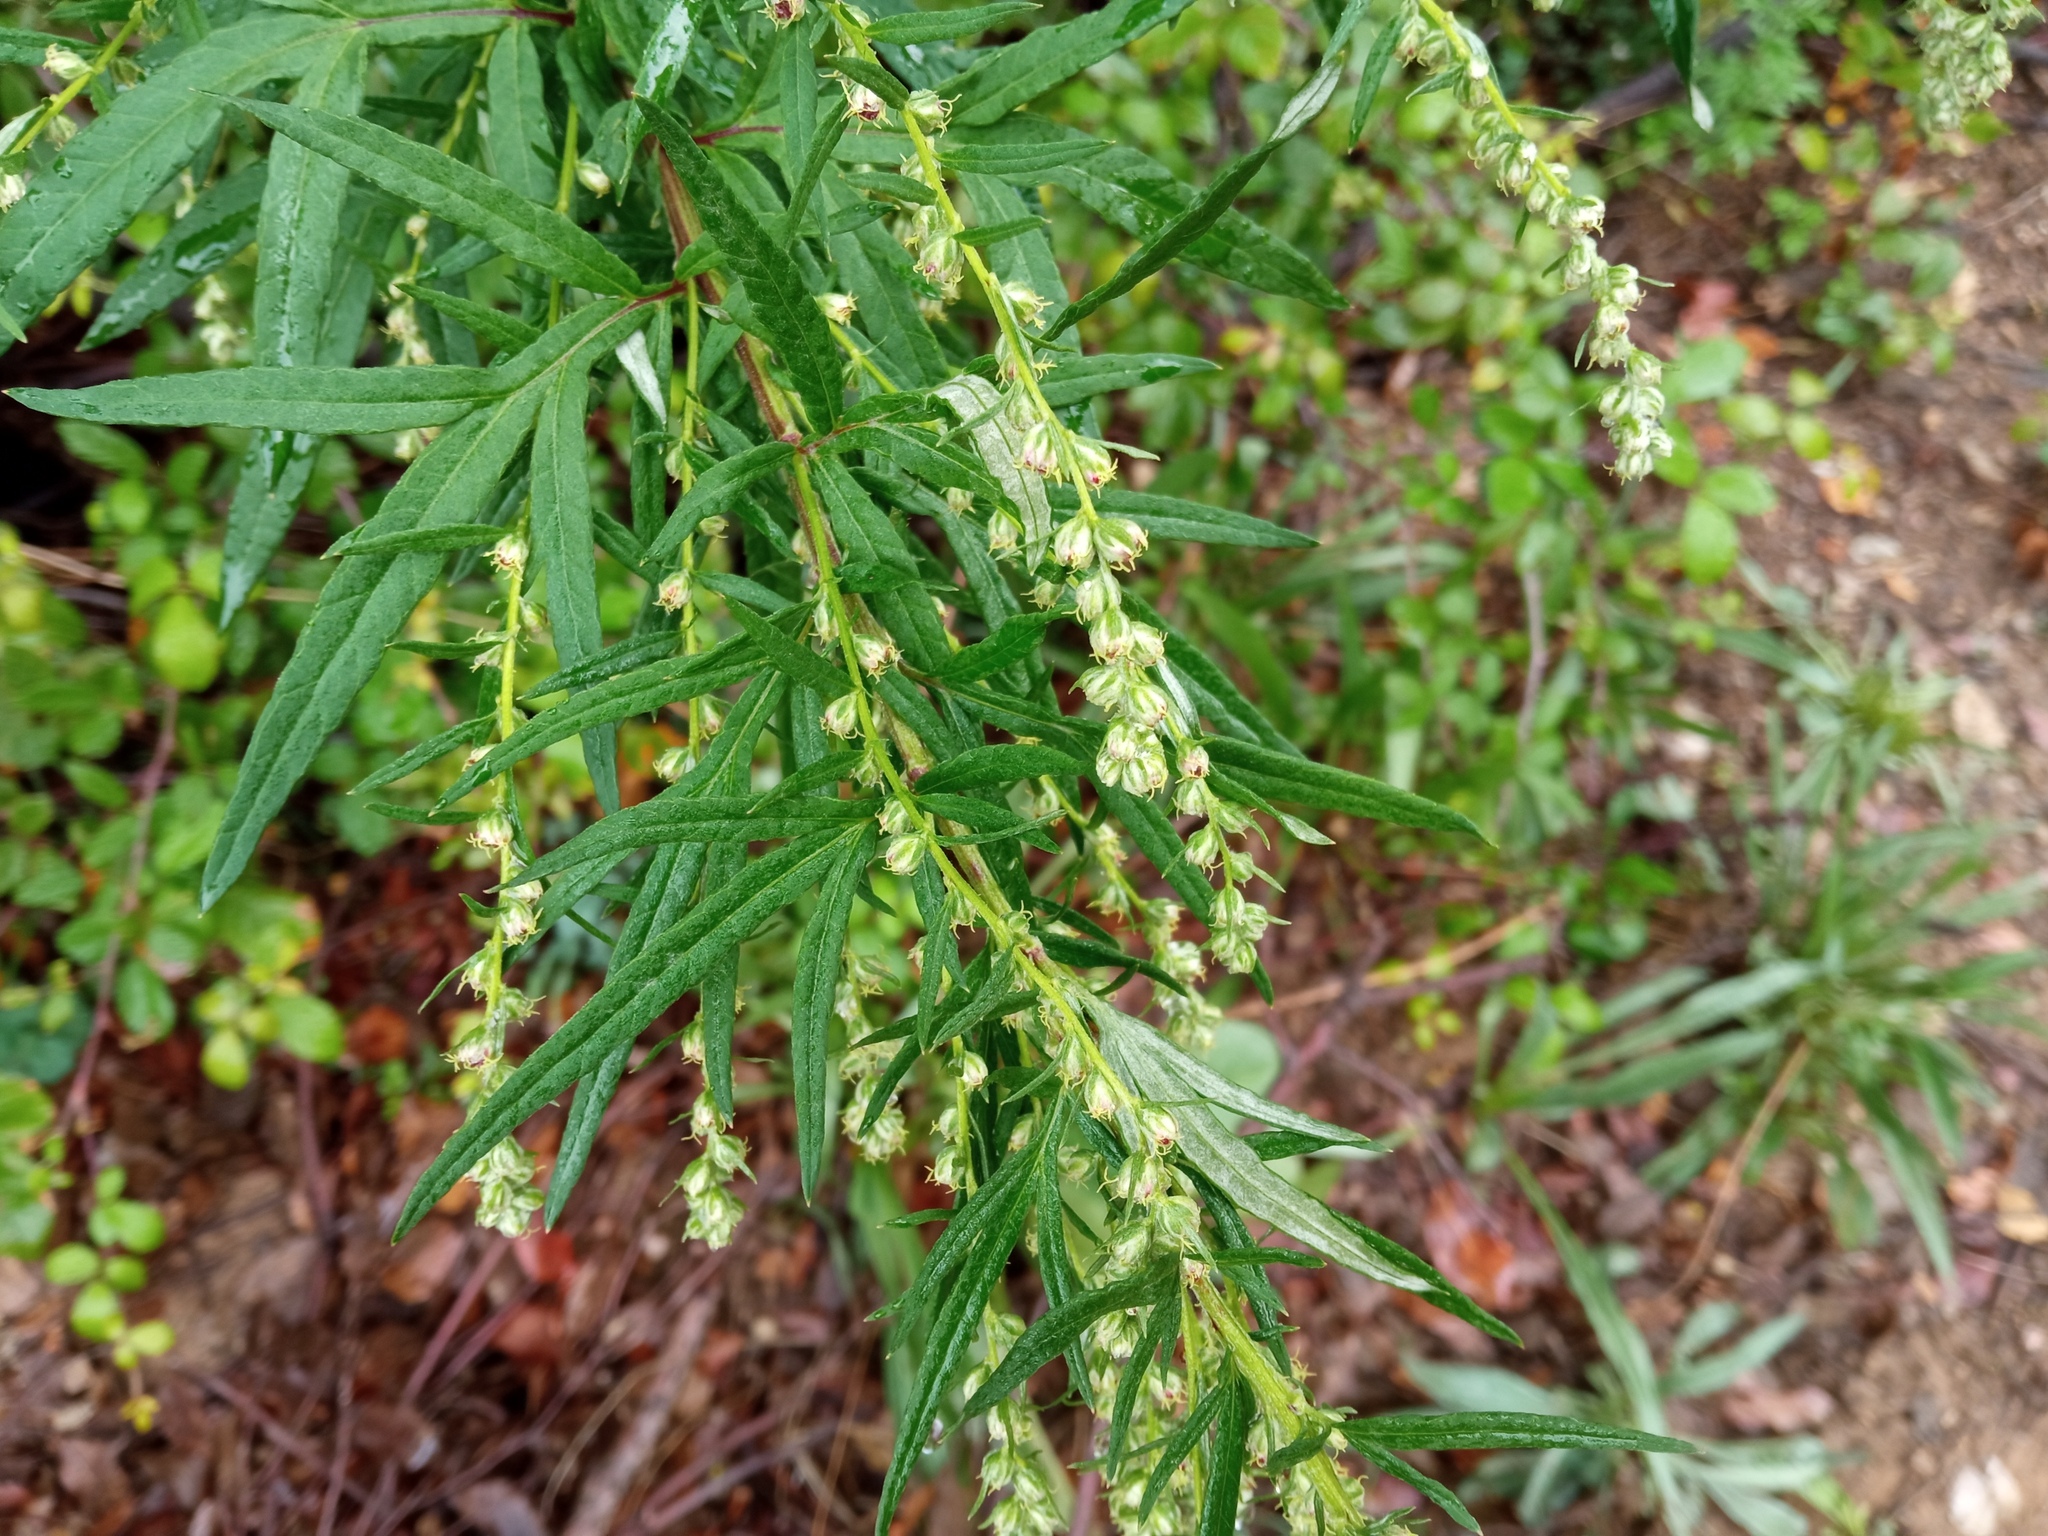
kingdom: Plantae
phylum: Tracheophyta
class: Magnoliopsida
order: Asterales
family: Asteraceae
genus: Artemisia
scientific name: Artemisia verlotiorum
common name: Chinese mugwort
